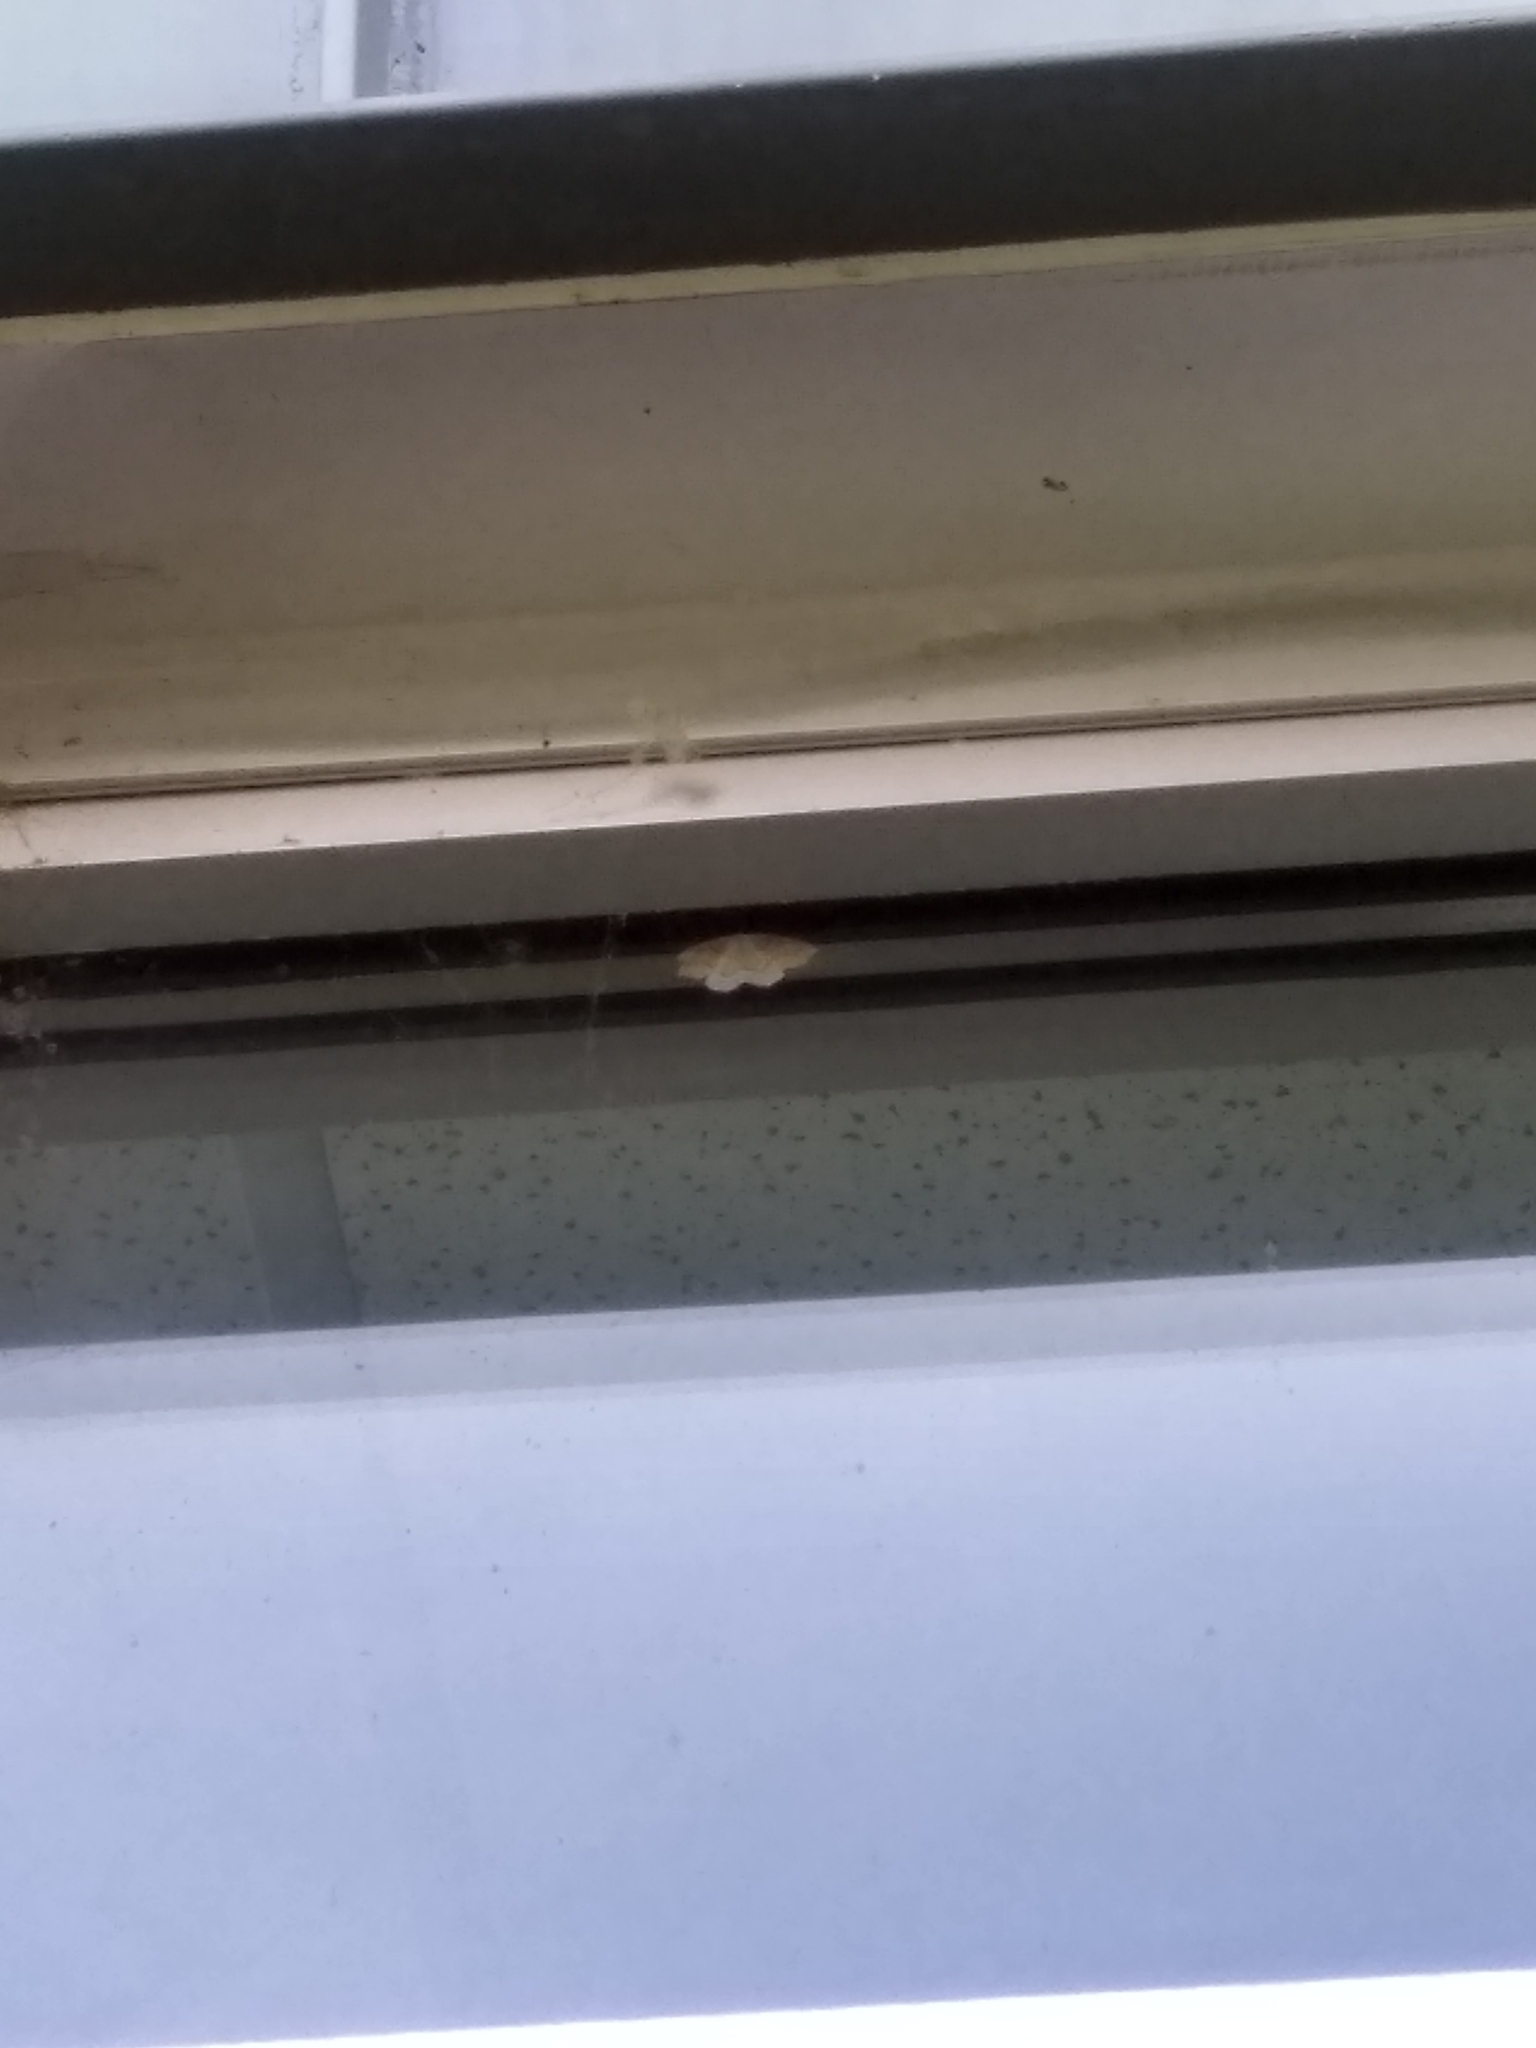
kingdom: Animalia
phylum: Arthropoda
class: Insecta
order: Lepidoptera
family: Geometridae
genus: Lambdina
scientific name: Lambdina fiscellaria
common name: Hemlock looper
